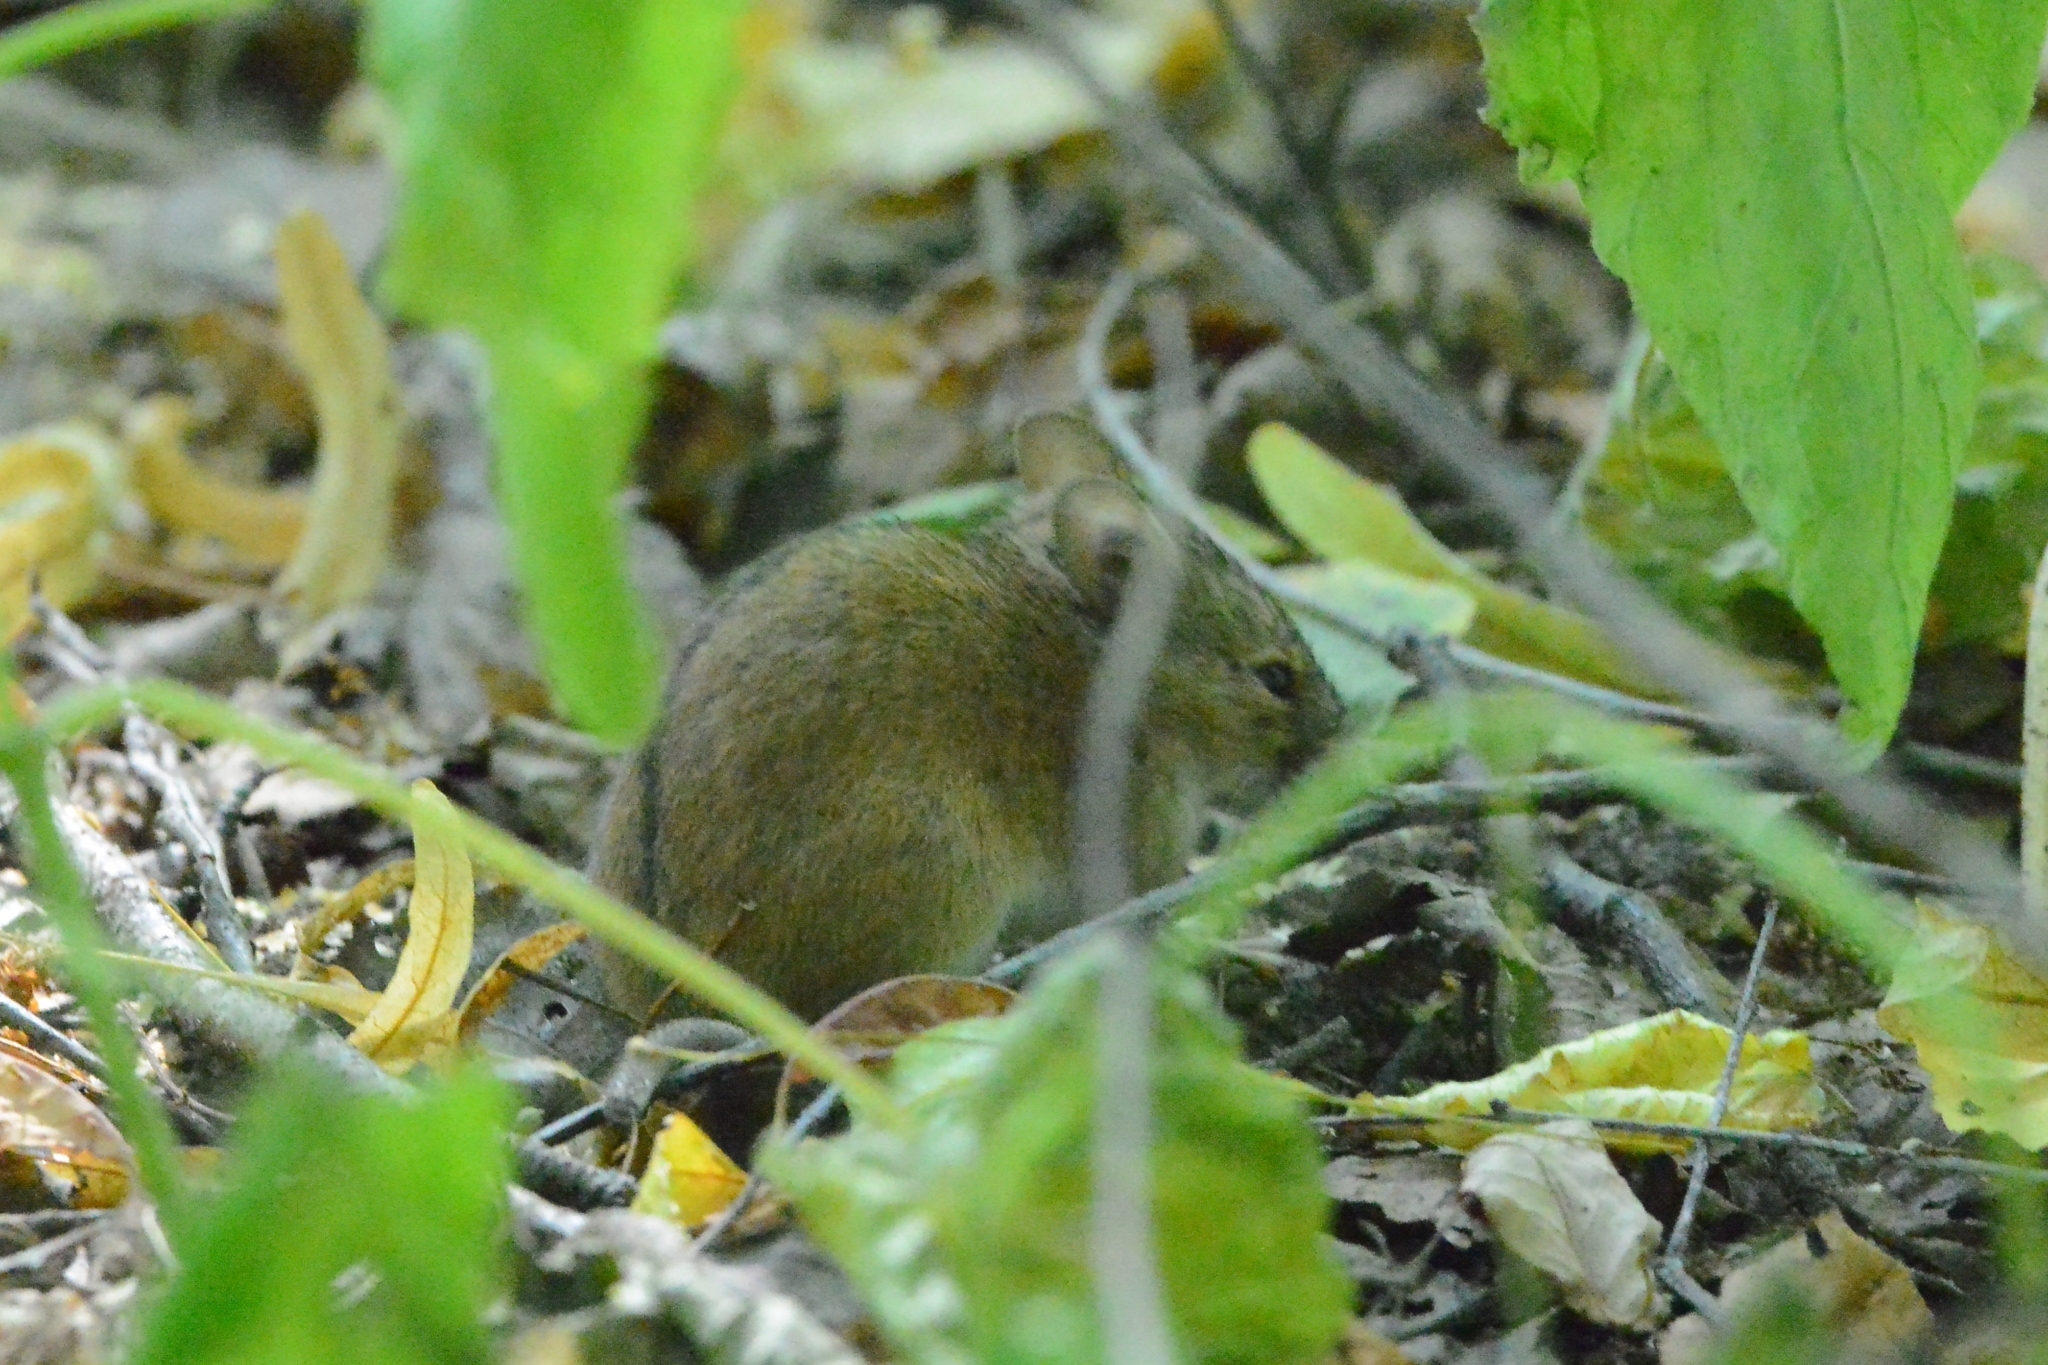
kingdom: Animalia
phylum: Chordata
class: Mammalia
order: Rodentia
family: Muridae
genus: Apodemus
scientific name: Apodemus agrarius
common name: Striped field mouse
